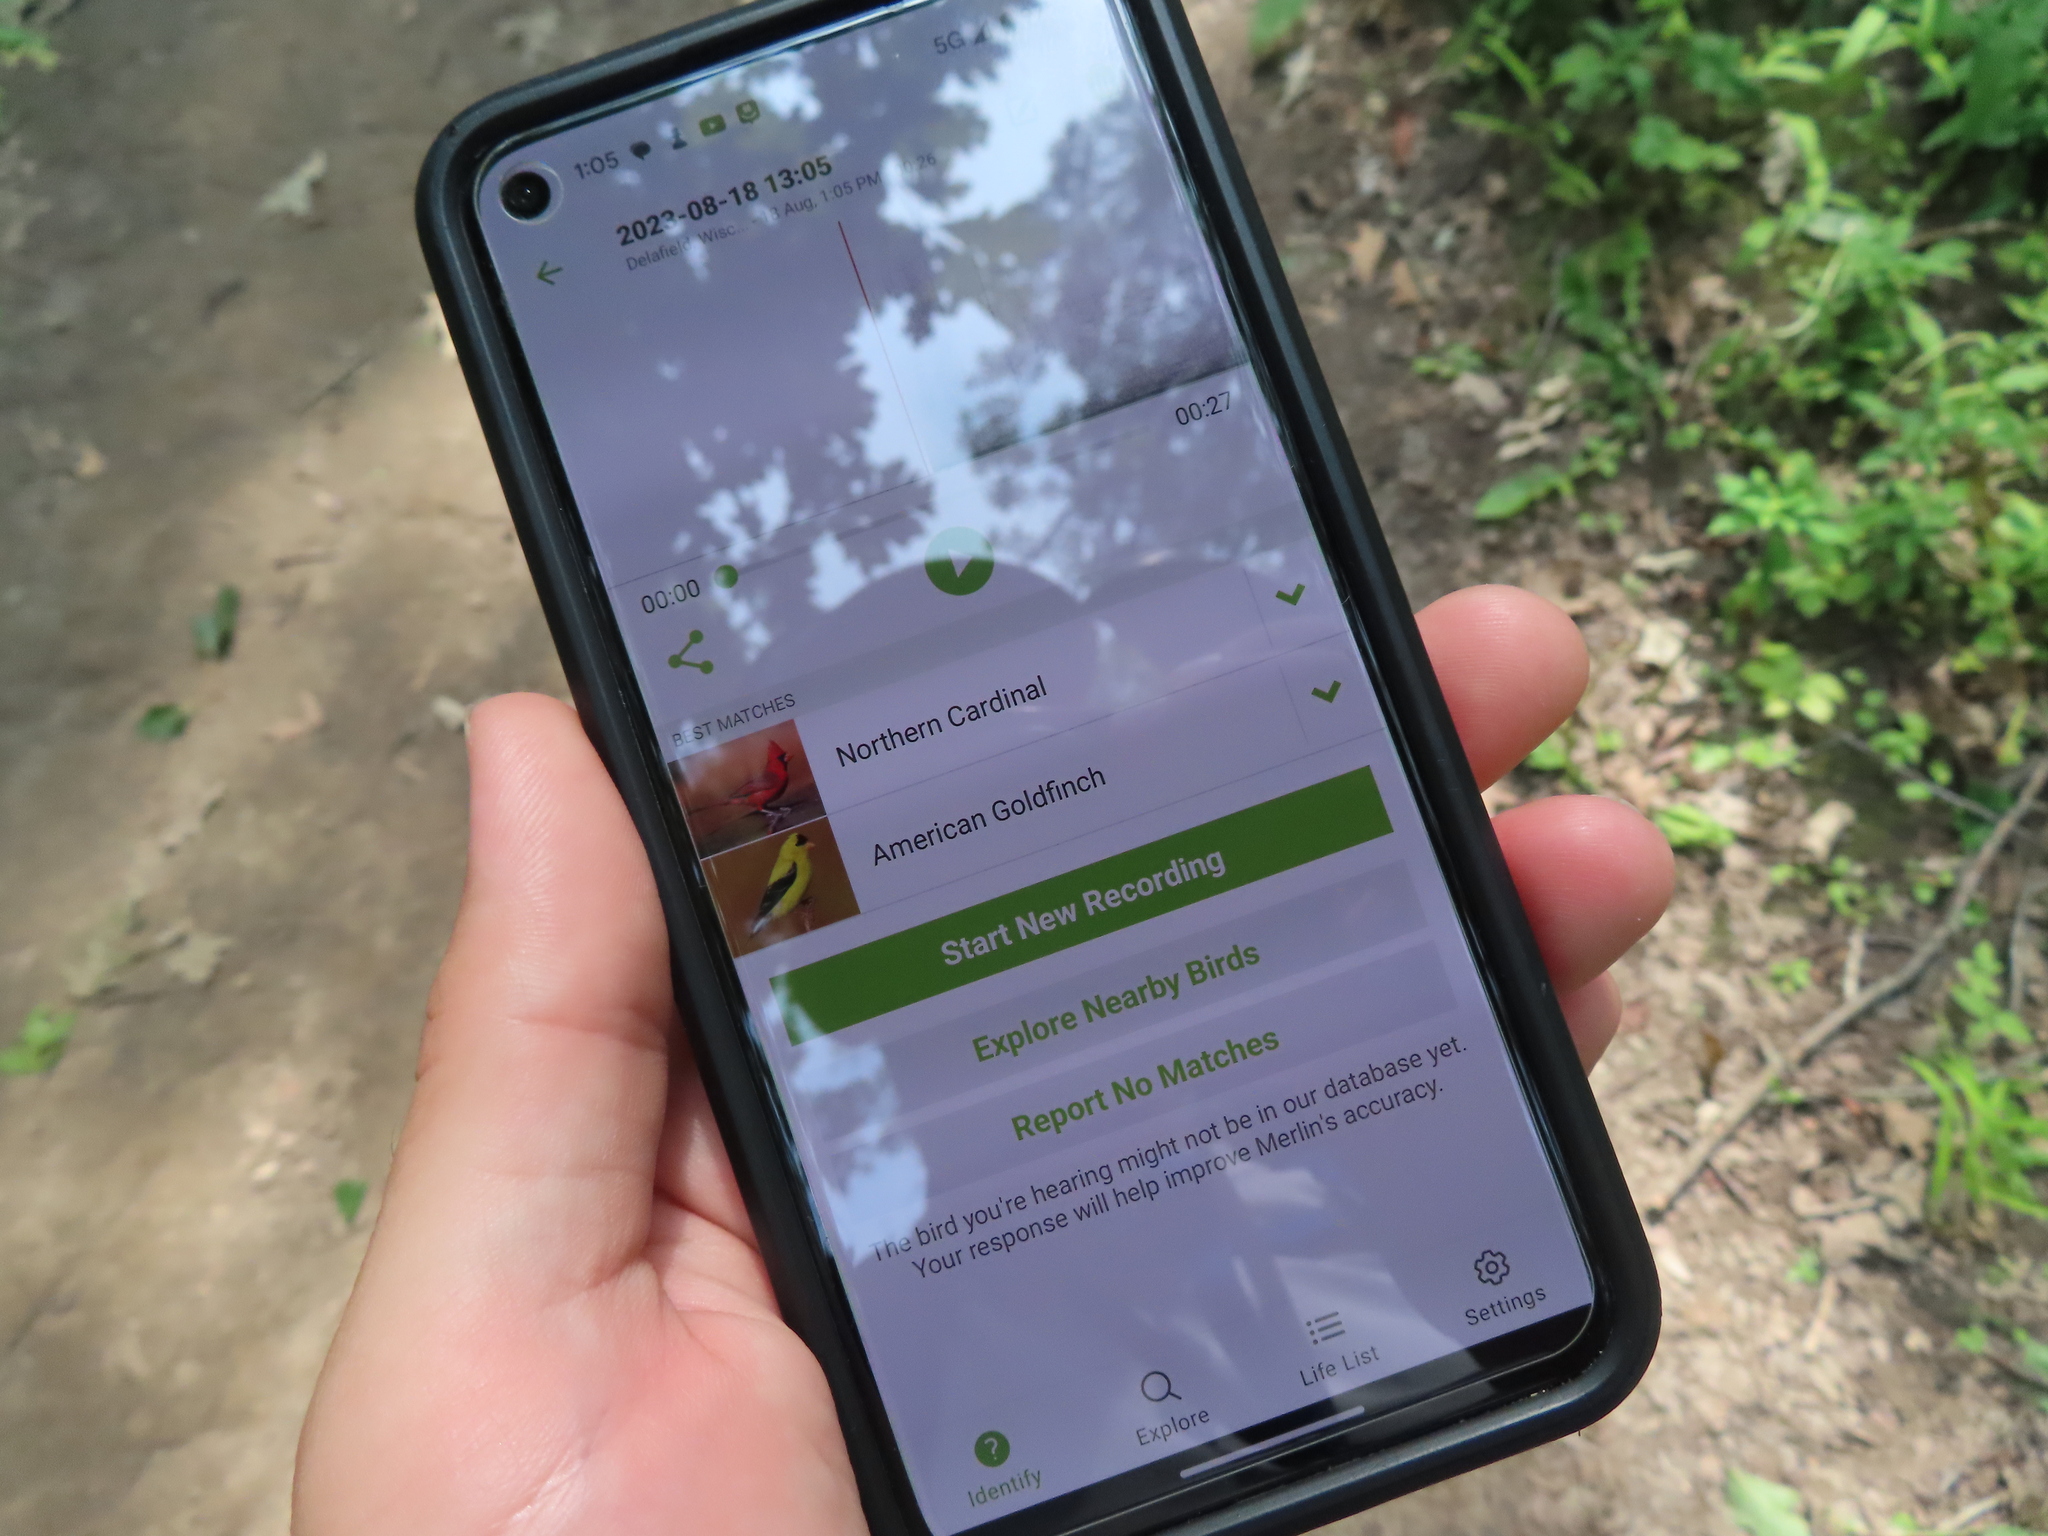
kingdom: Animalia
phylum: Chordata
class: Aves
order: Passeriformes
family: Fringillidae
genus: Spinus
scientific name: Spinus tristis
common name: American goldfinch
